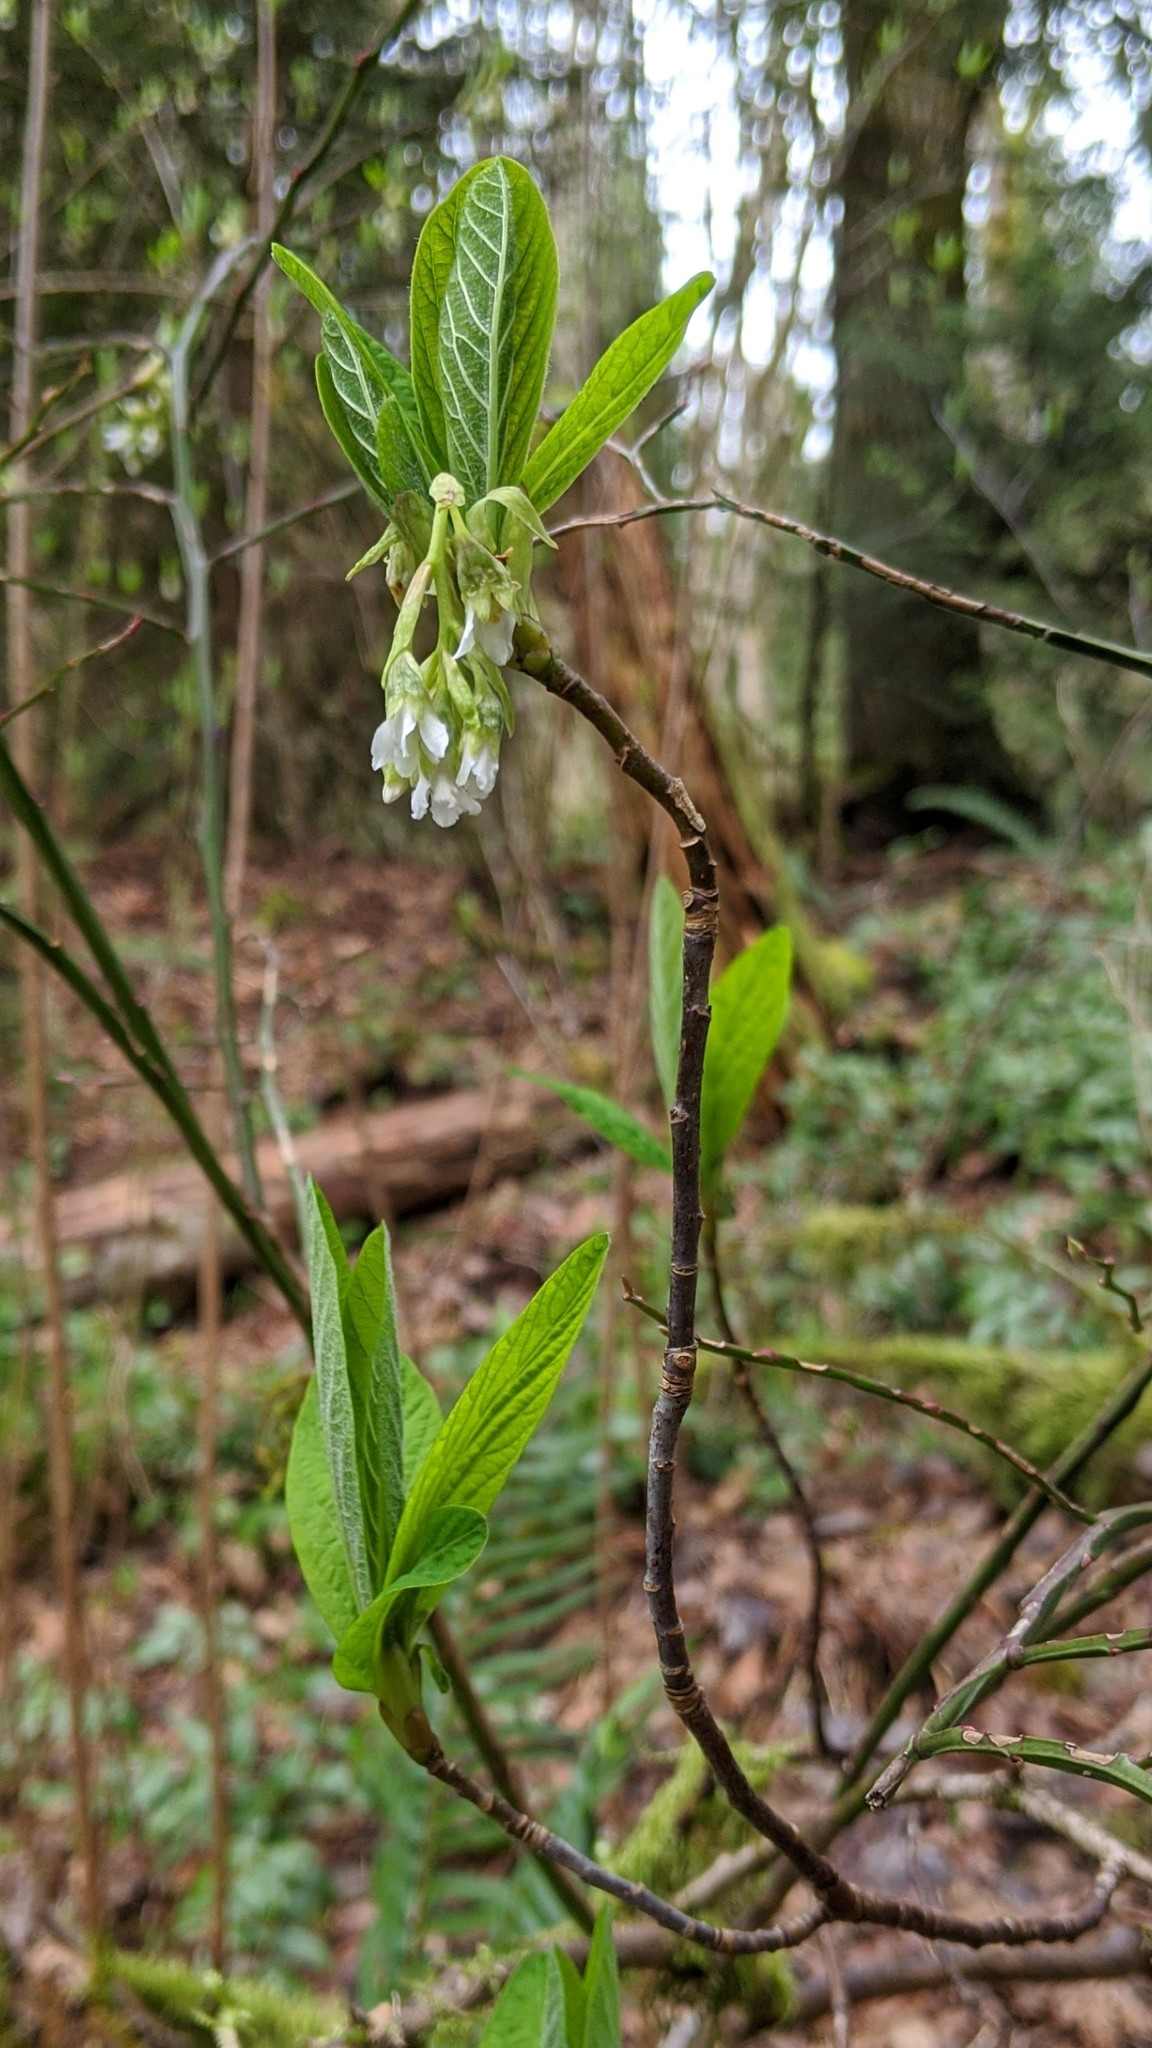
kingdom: Plantae
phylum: Tracheophyta
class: Magnoliopsida
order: Rosales
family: Rosaceae
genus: Oemleria
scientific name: Oemleria cerasiformis
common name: Osoberry
